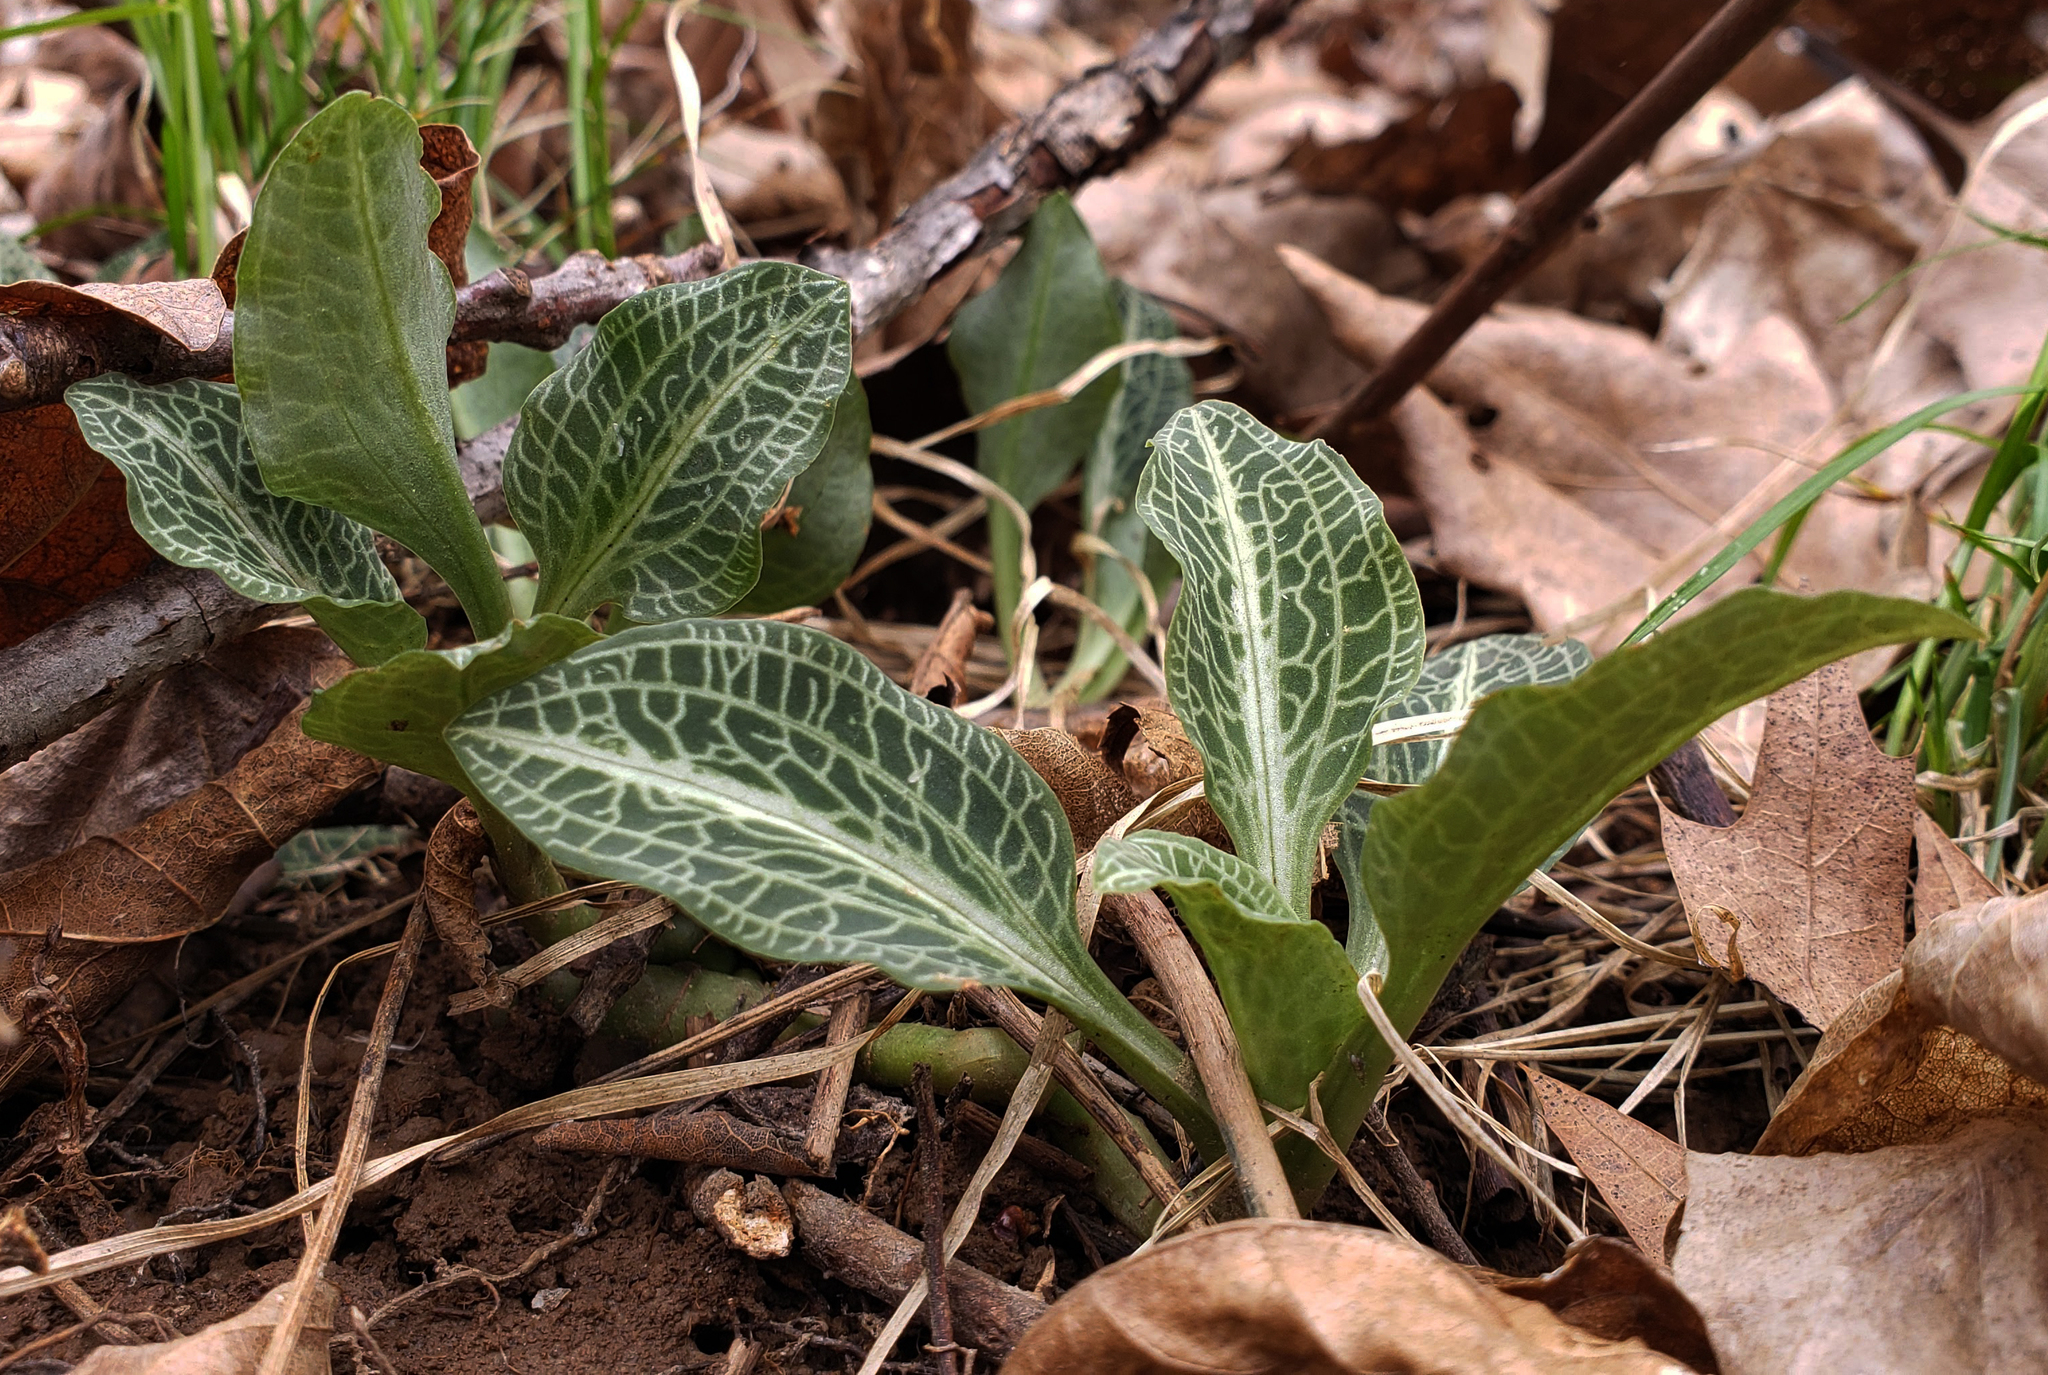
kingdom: Plantae
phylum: Tracheophyta
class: Liliopsida
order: Asparagales
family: Orchidaceae
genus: Goodyera
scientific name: Goodyera pubescens
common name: Downy rattlesnake-plantain
